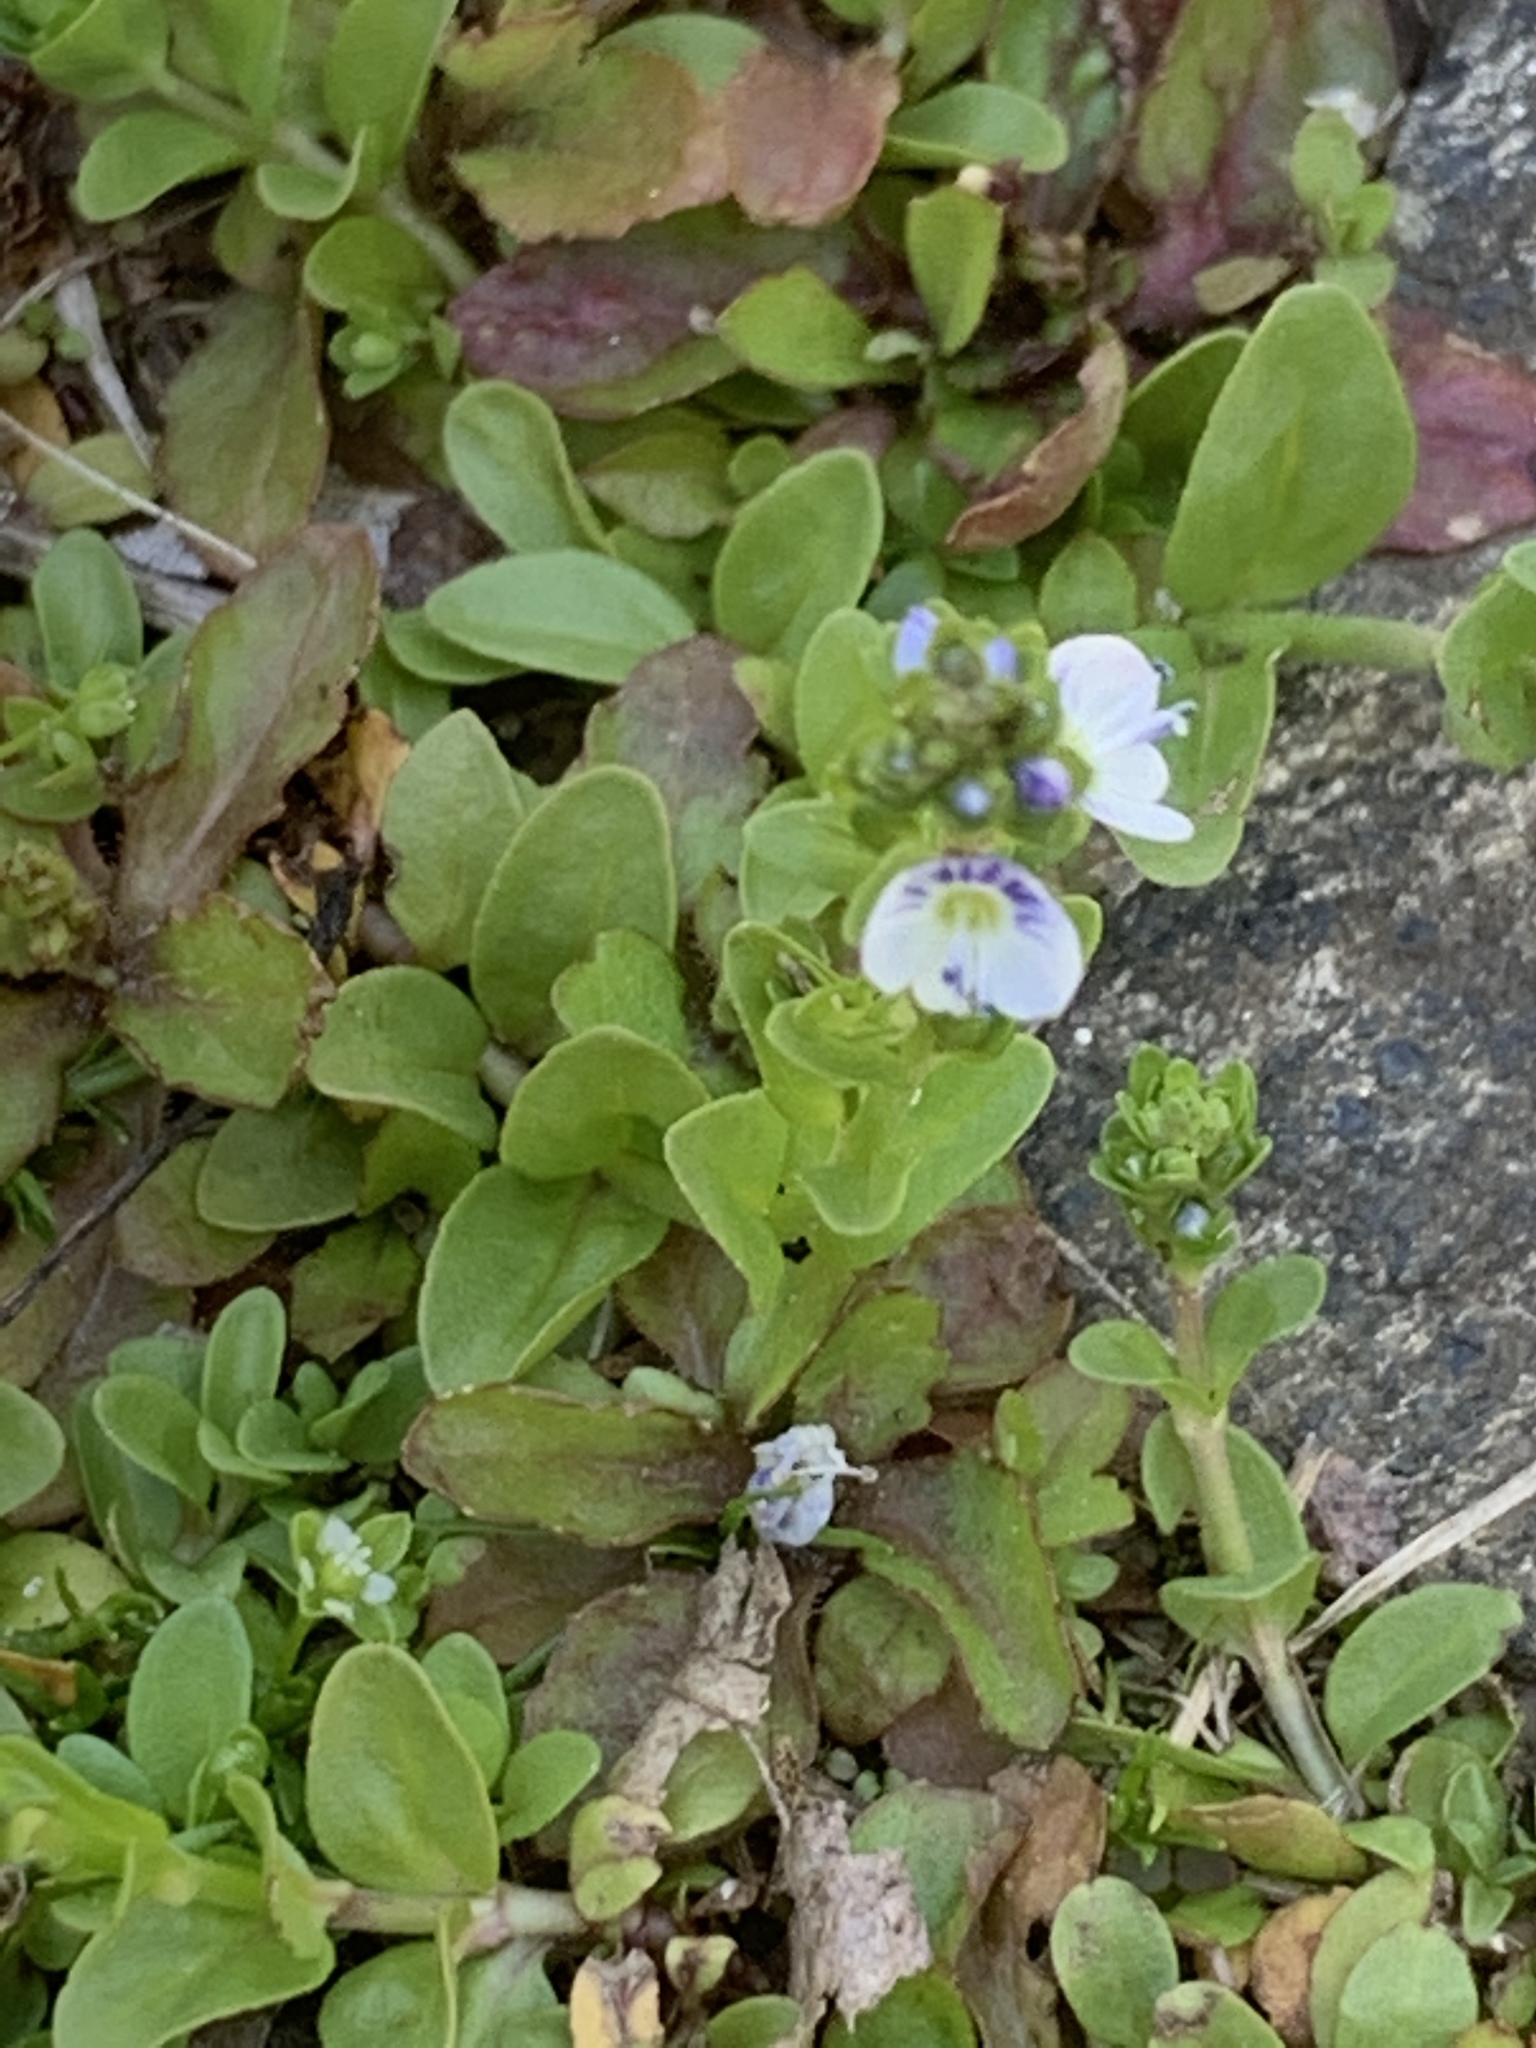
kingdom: Plantae
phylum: Tracheophyta
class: Magnoliopsida
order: Lamiales
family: Plantaginaceae
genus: Veronica
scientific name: Veronica serpyllifolia
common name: Thyme-leaved speedwell
